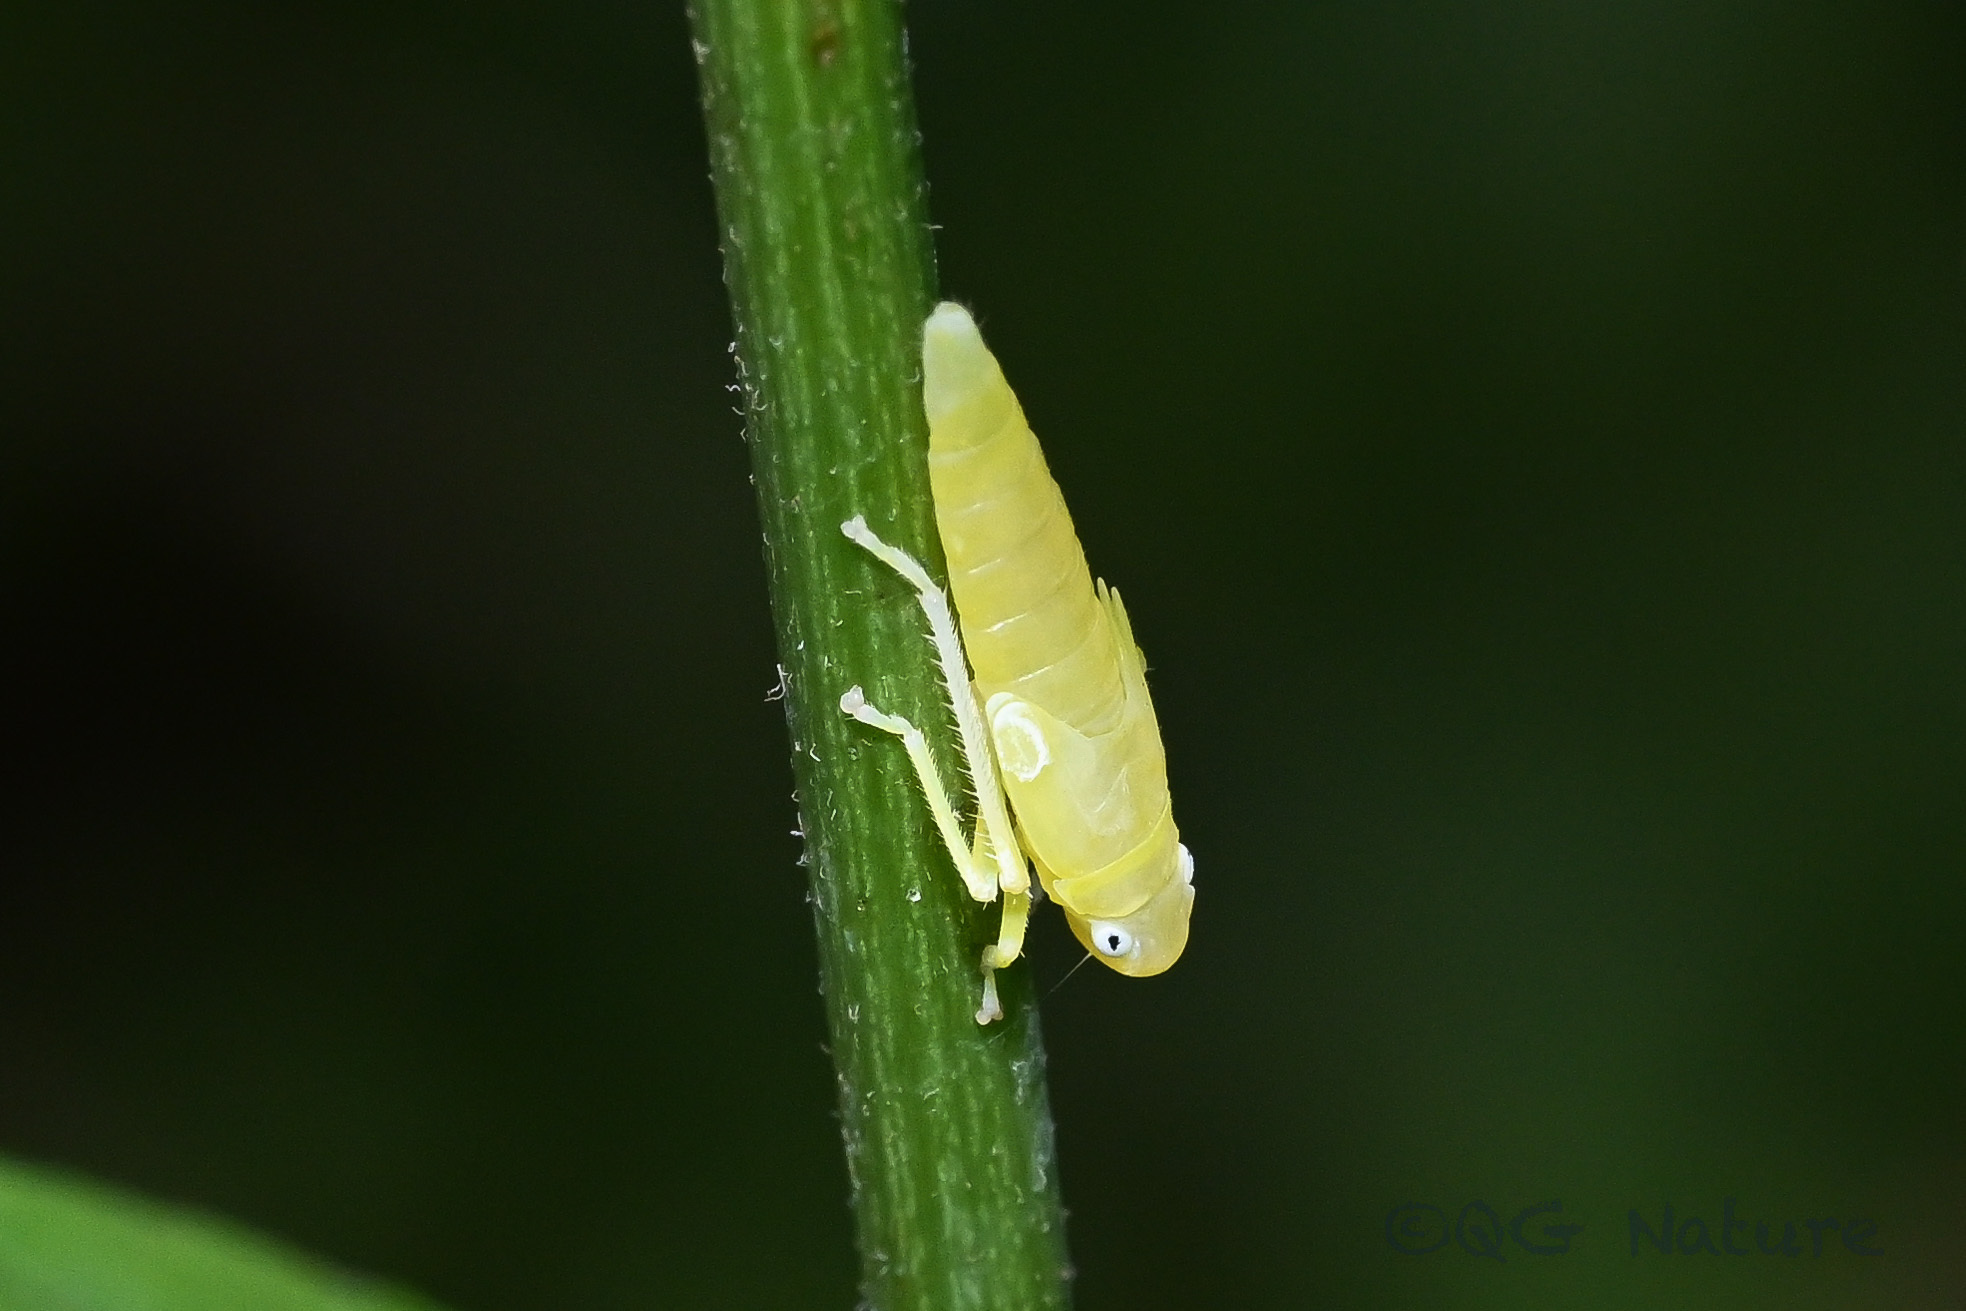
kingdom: Animalia
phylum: Arthropoda
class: Insecta
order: Hemiptera
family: Cicadellidae
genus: Bothrogonia
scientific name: Bothrogonia ferruginea
